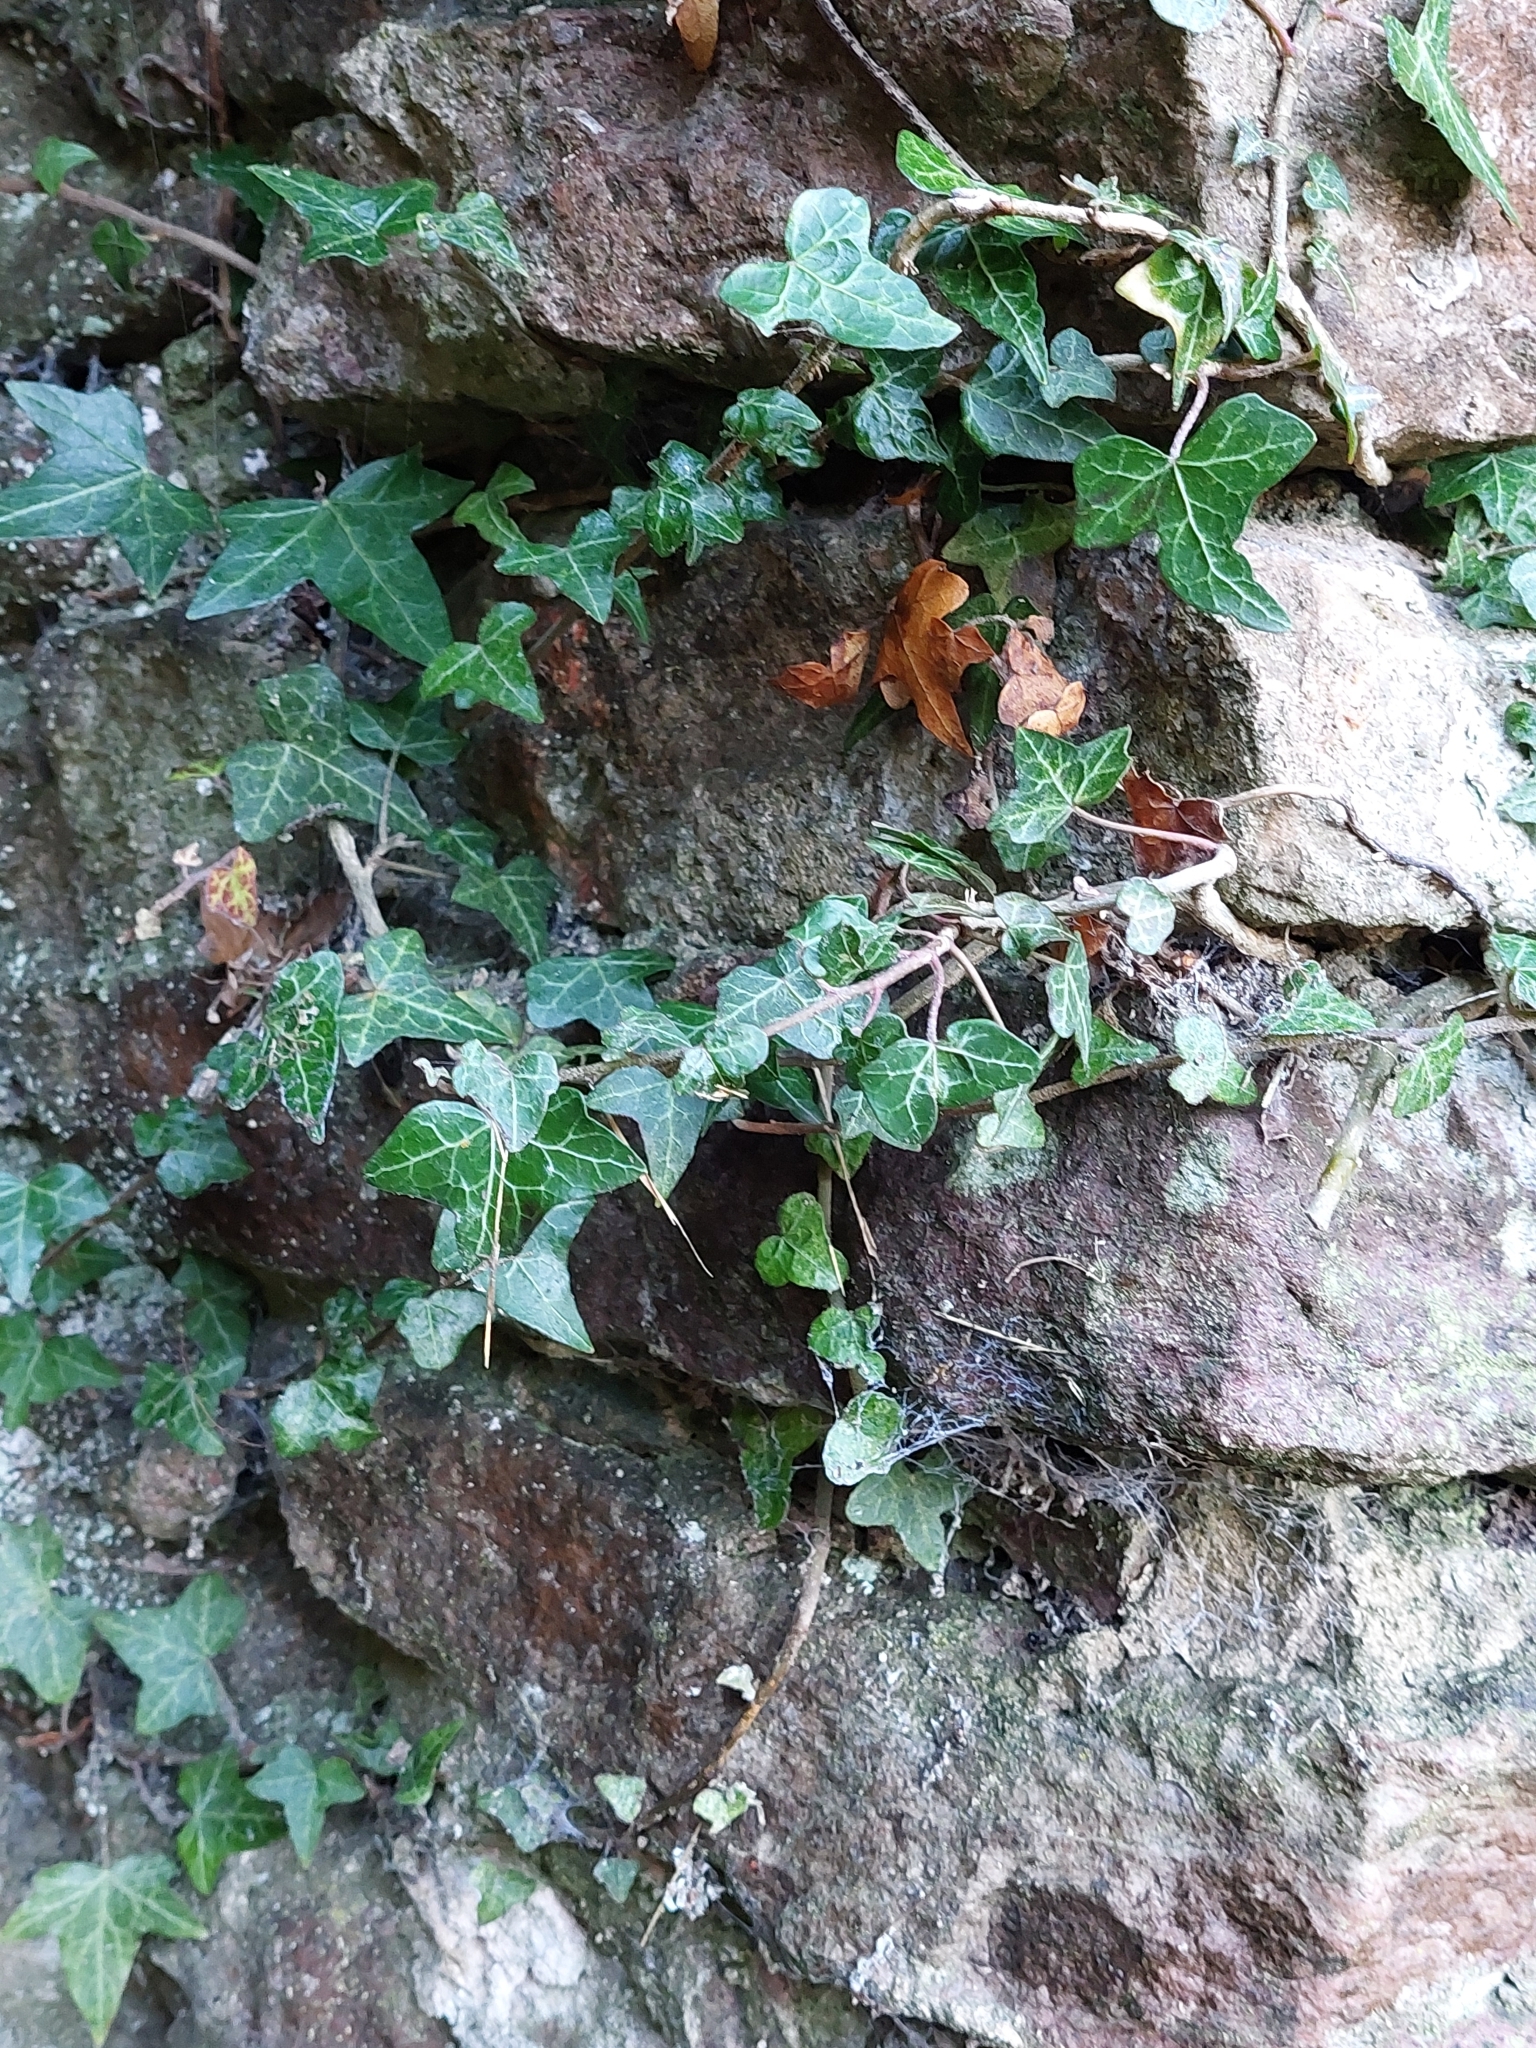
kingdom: Plantae
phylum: Tracheophyta
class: Magnoliopsida
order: Apiales
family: Araliaceae
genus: Hedera
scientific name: Hedera helix
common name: Ivy
